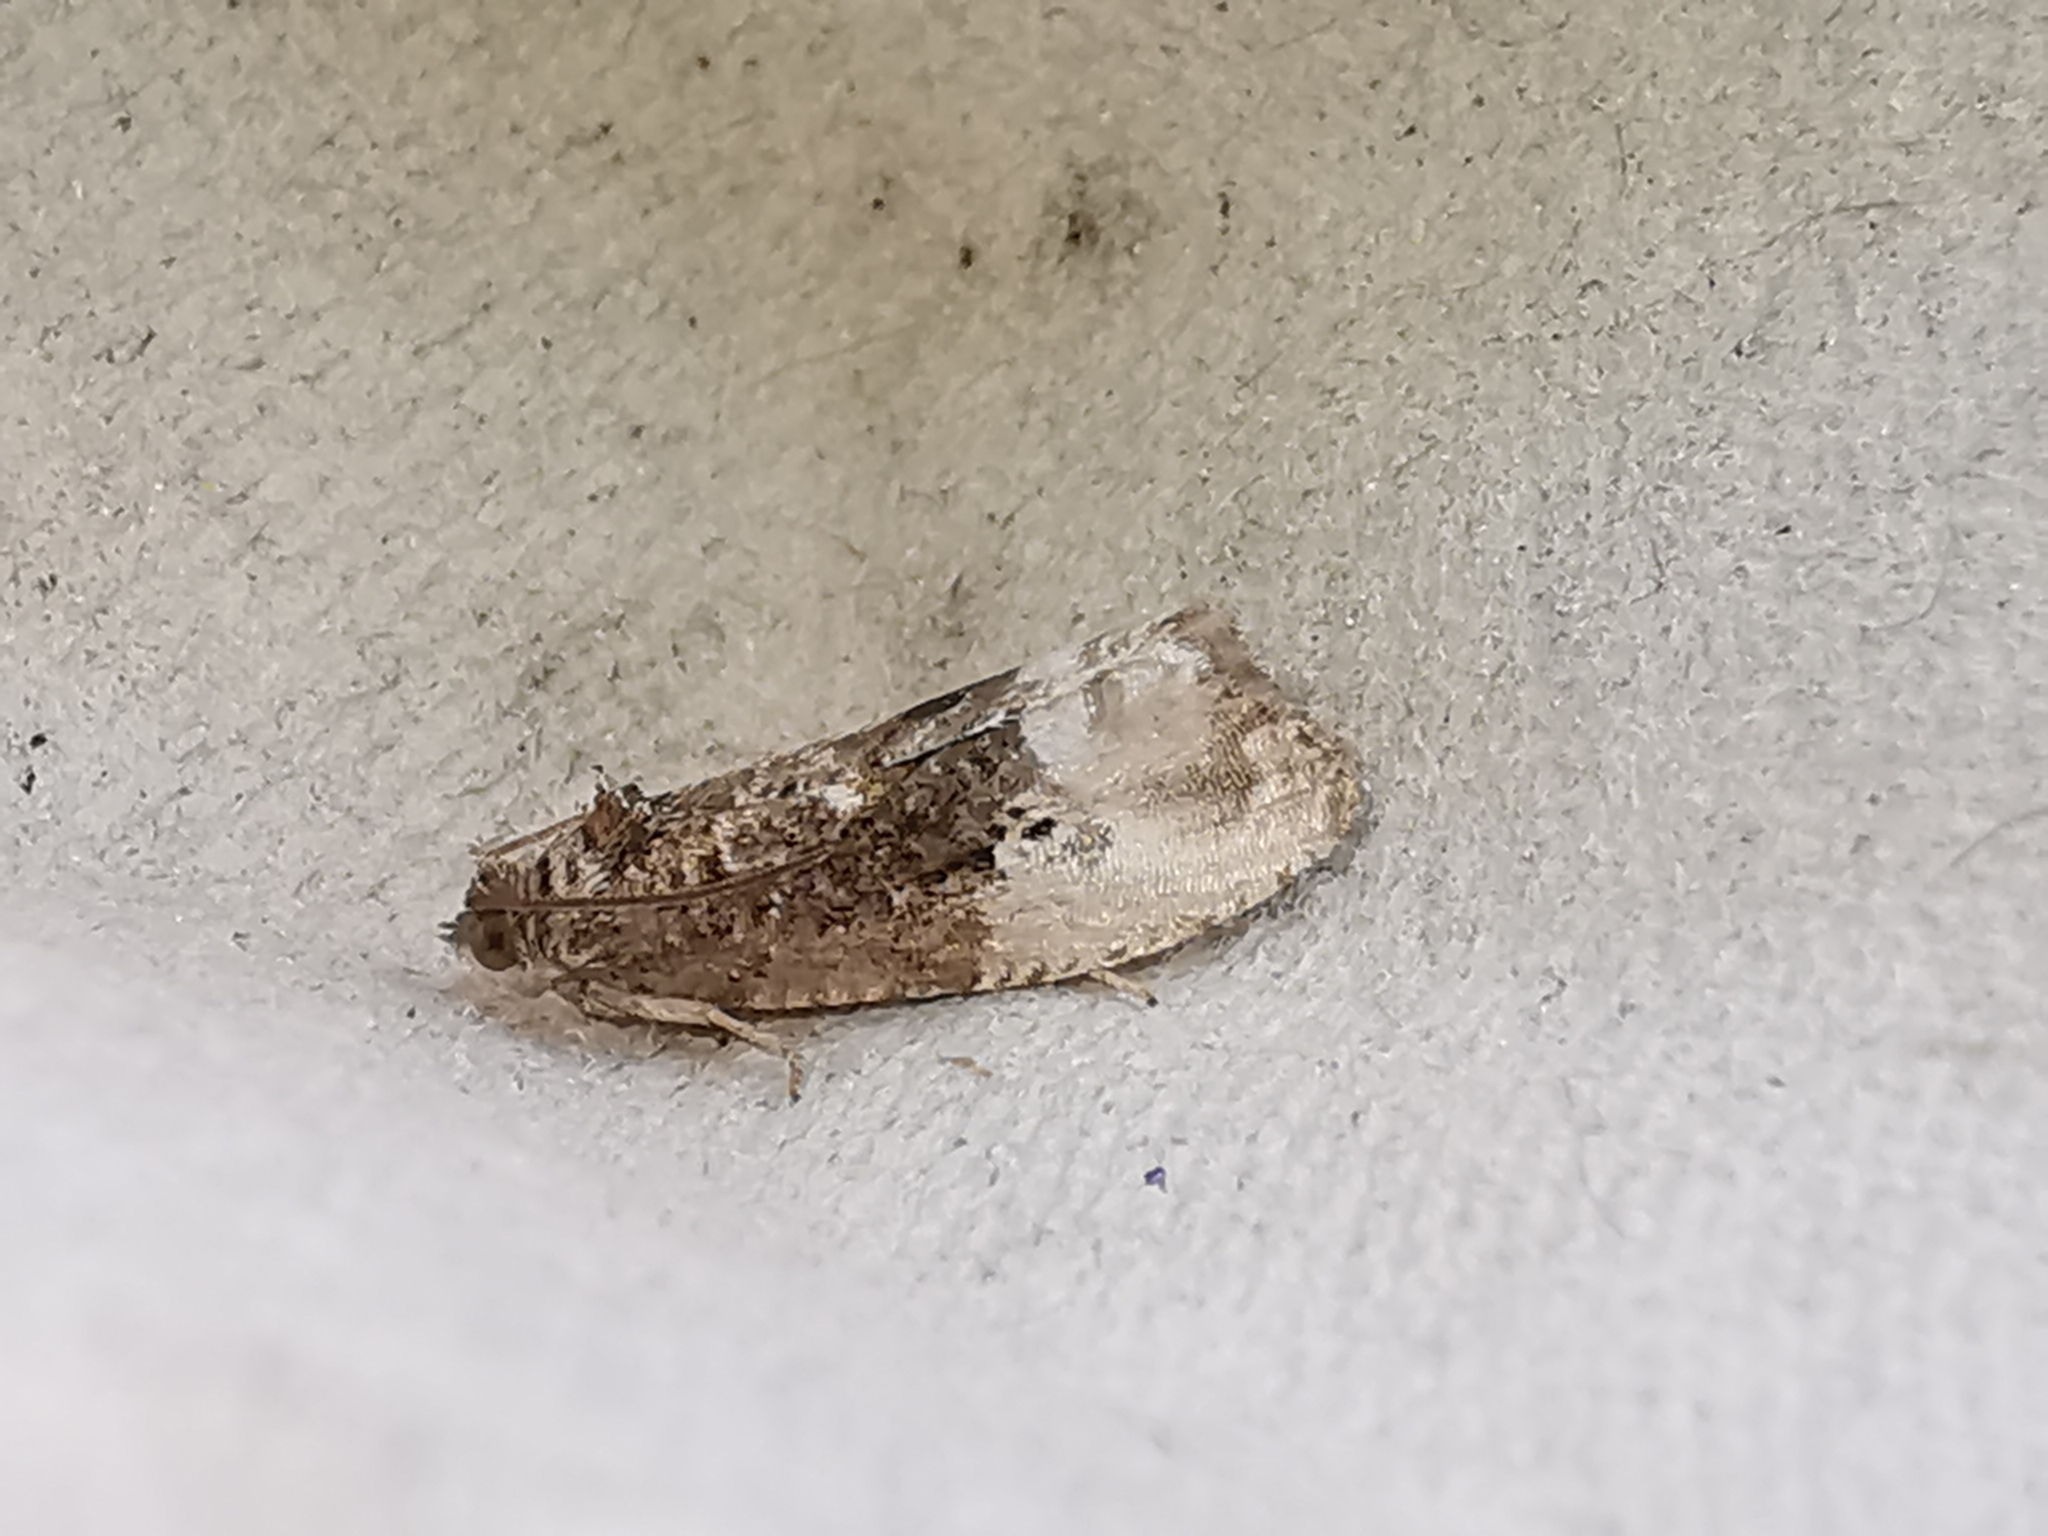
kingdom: Animalia
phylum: Arthropoda
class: Insecta
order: Lepidoptera
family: Tortricidae
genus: Hedya
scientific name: Hedya nubiferana
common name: Marbled orchard tortrix
